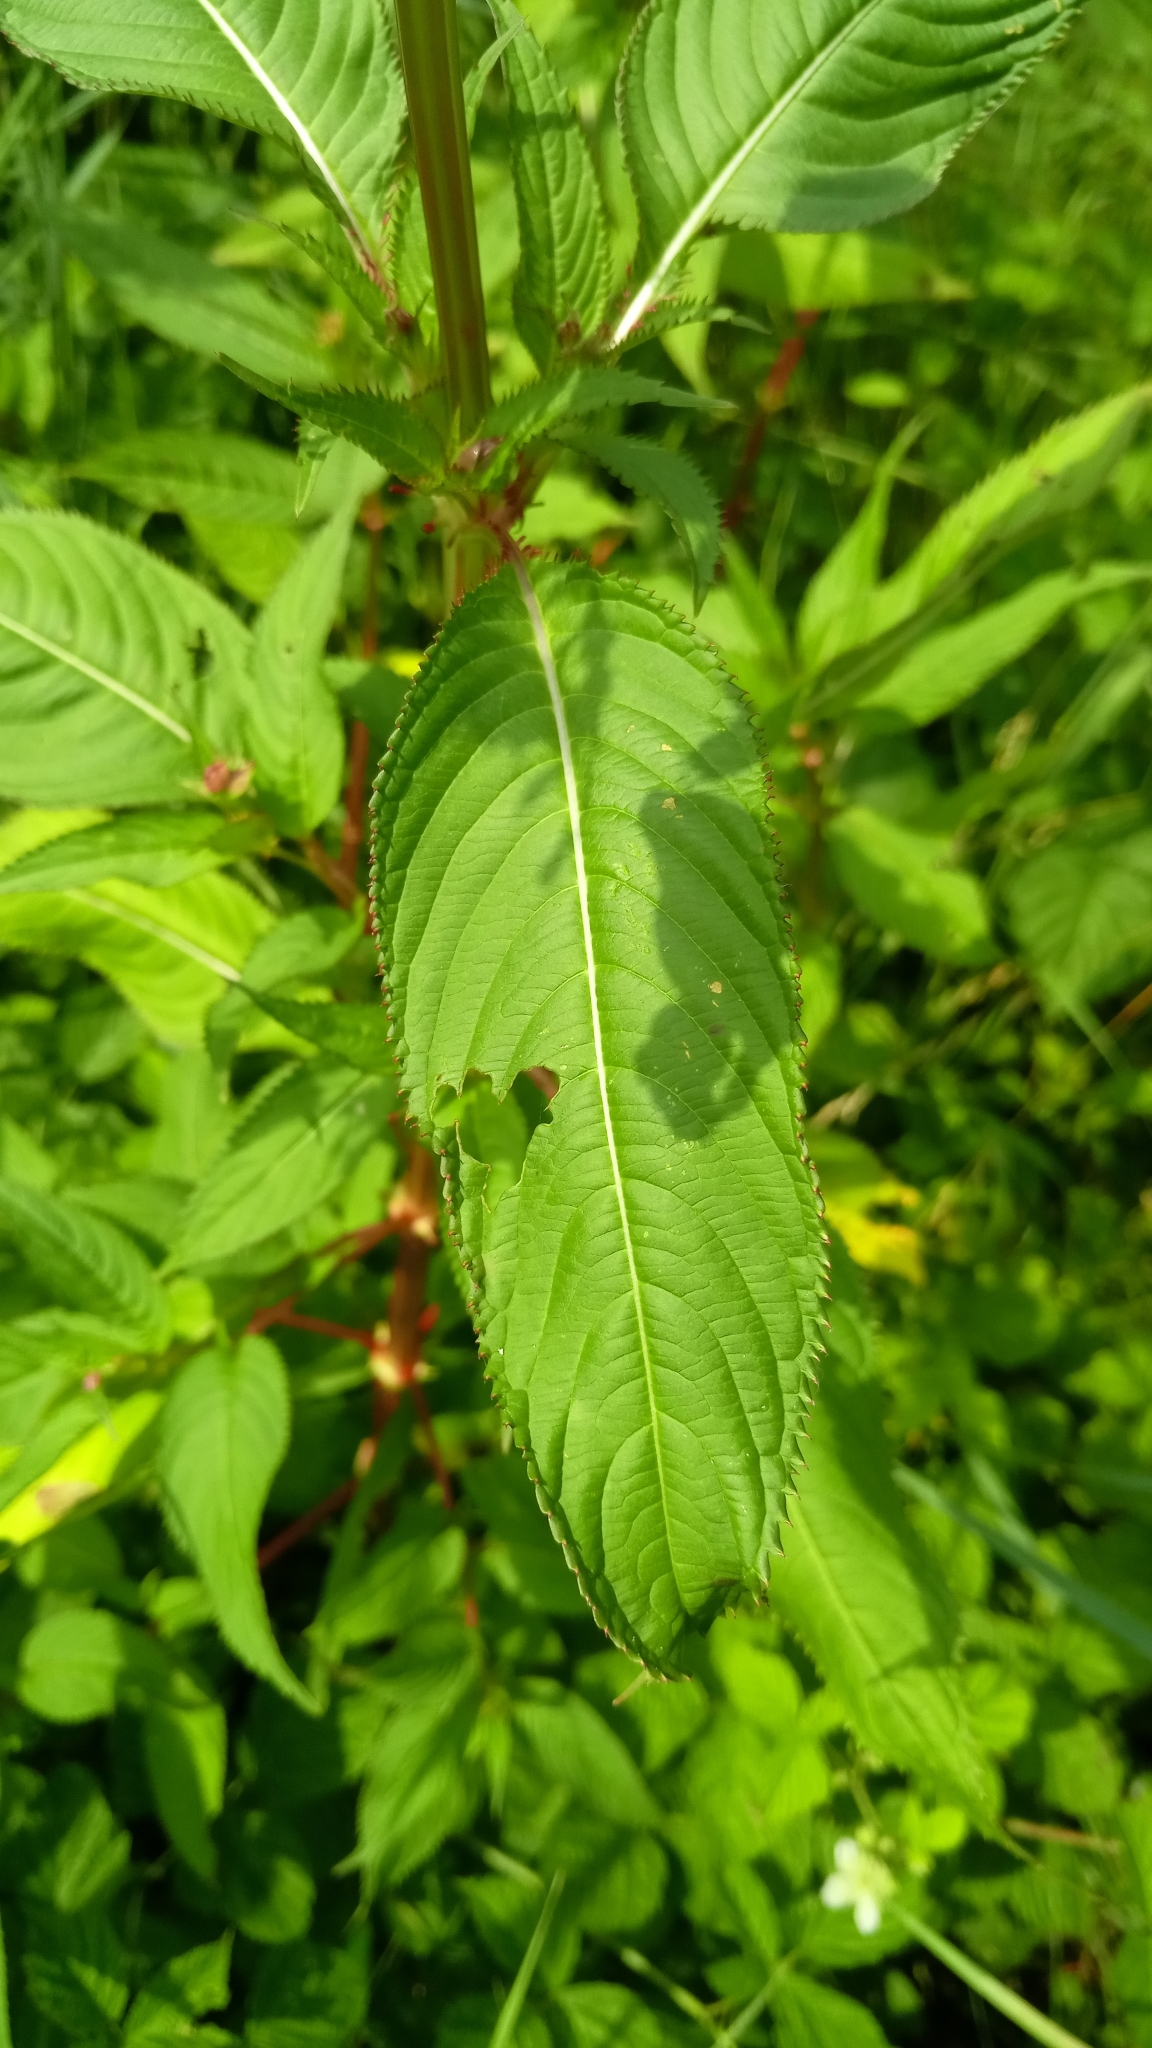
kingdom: Plantae
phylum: Tracheophyta
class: Magnoliopsida
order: Ericales
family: Balsaminaceae
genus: Impatiens
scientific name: Impatiens glandulifera
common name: Himalayan balsam
